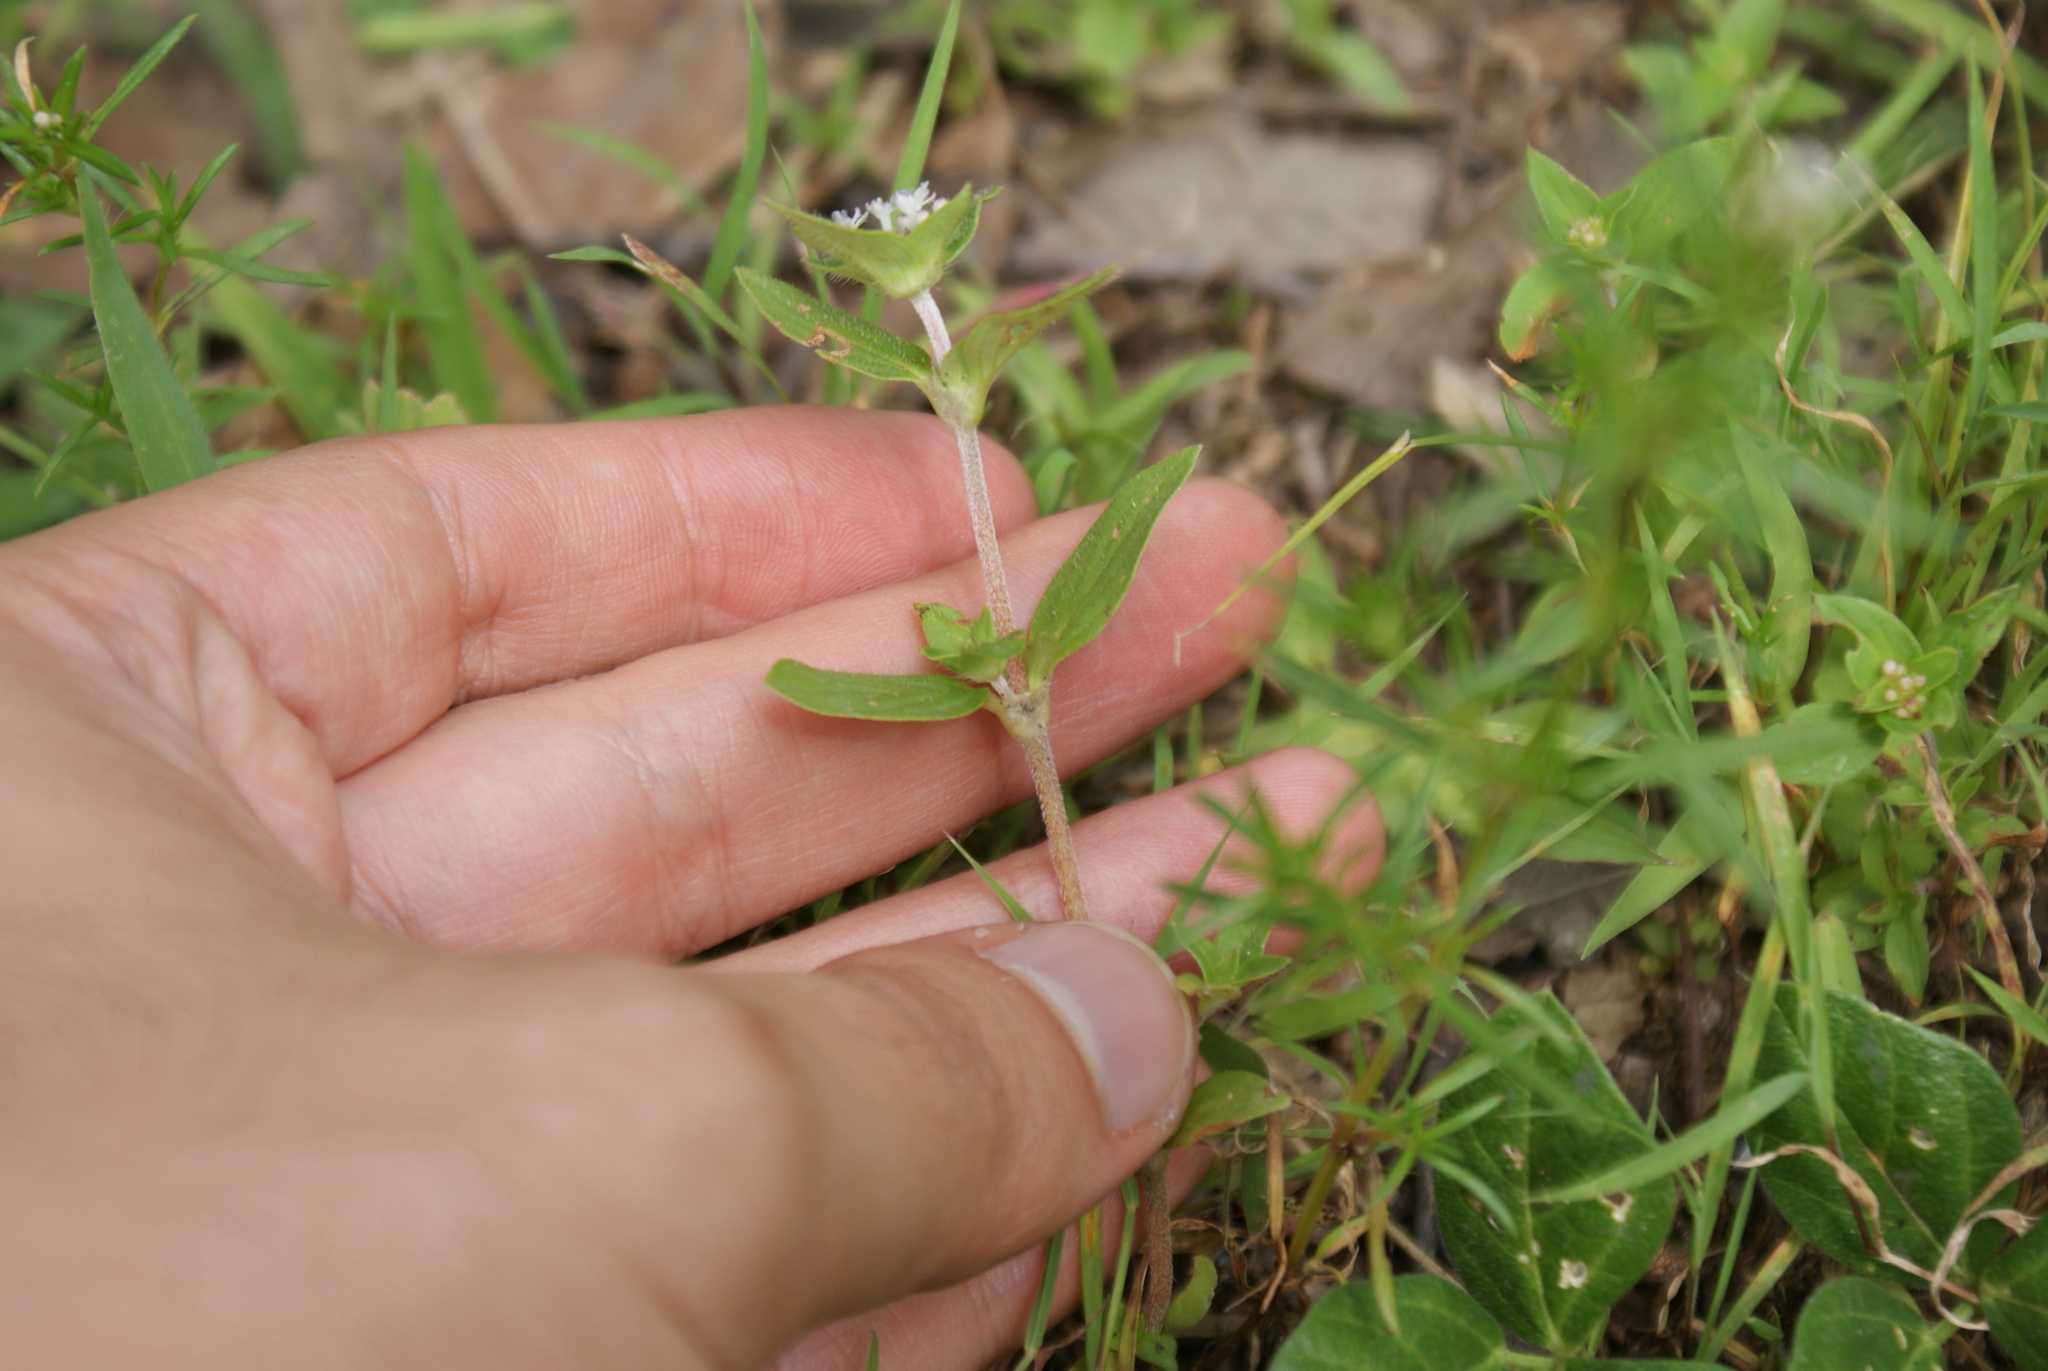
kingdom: Plantae
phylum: Tracheophyta
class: Magnoliopsida
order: Gentianales
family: Rubiaceae
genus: Crusea
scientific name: Crusea longiflora
